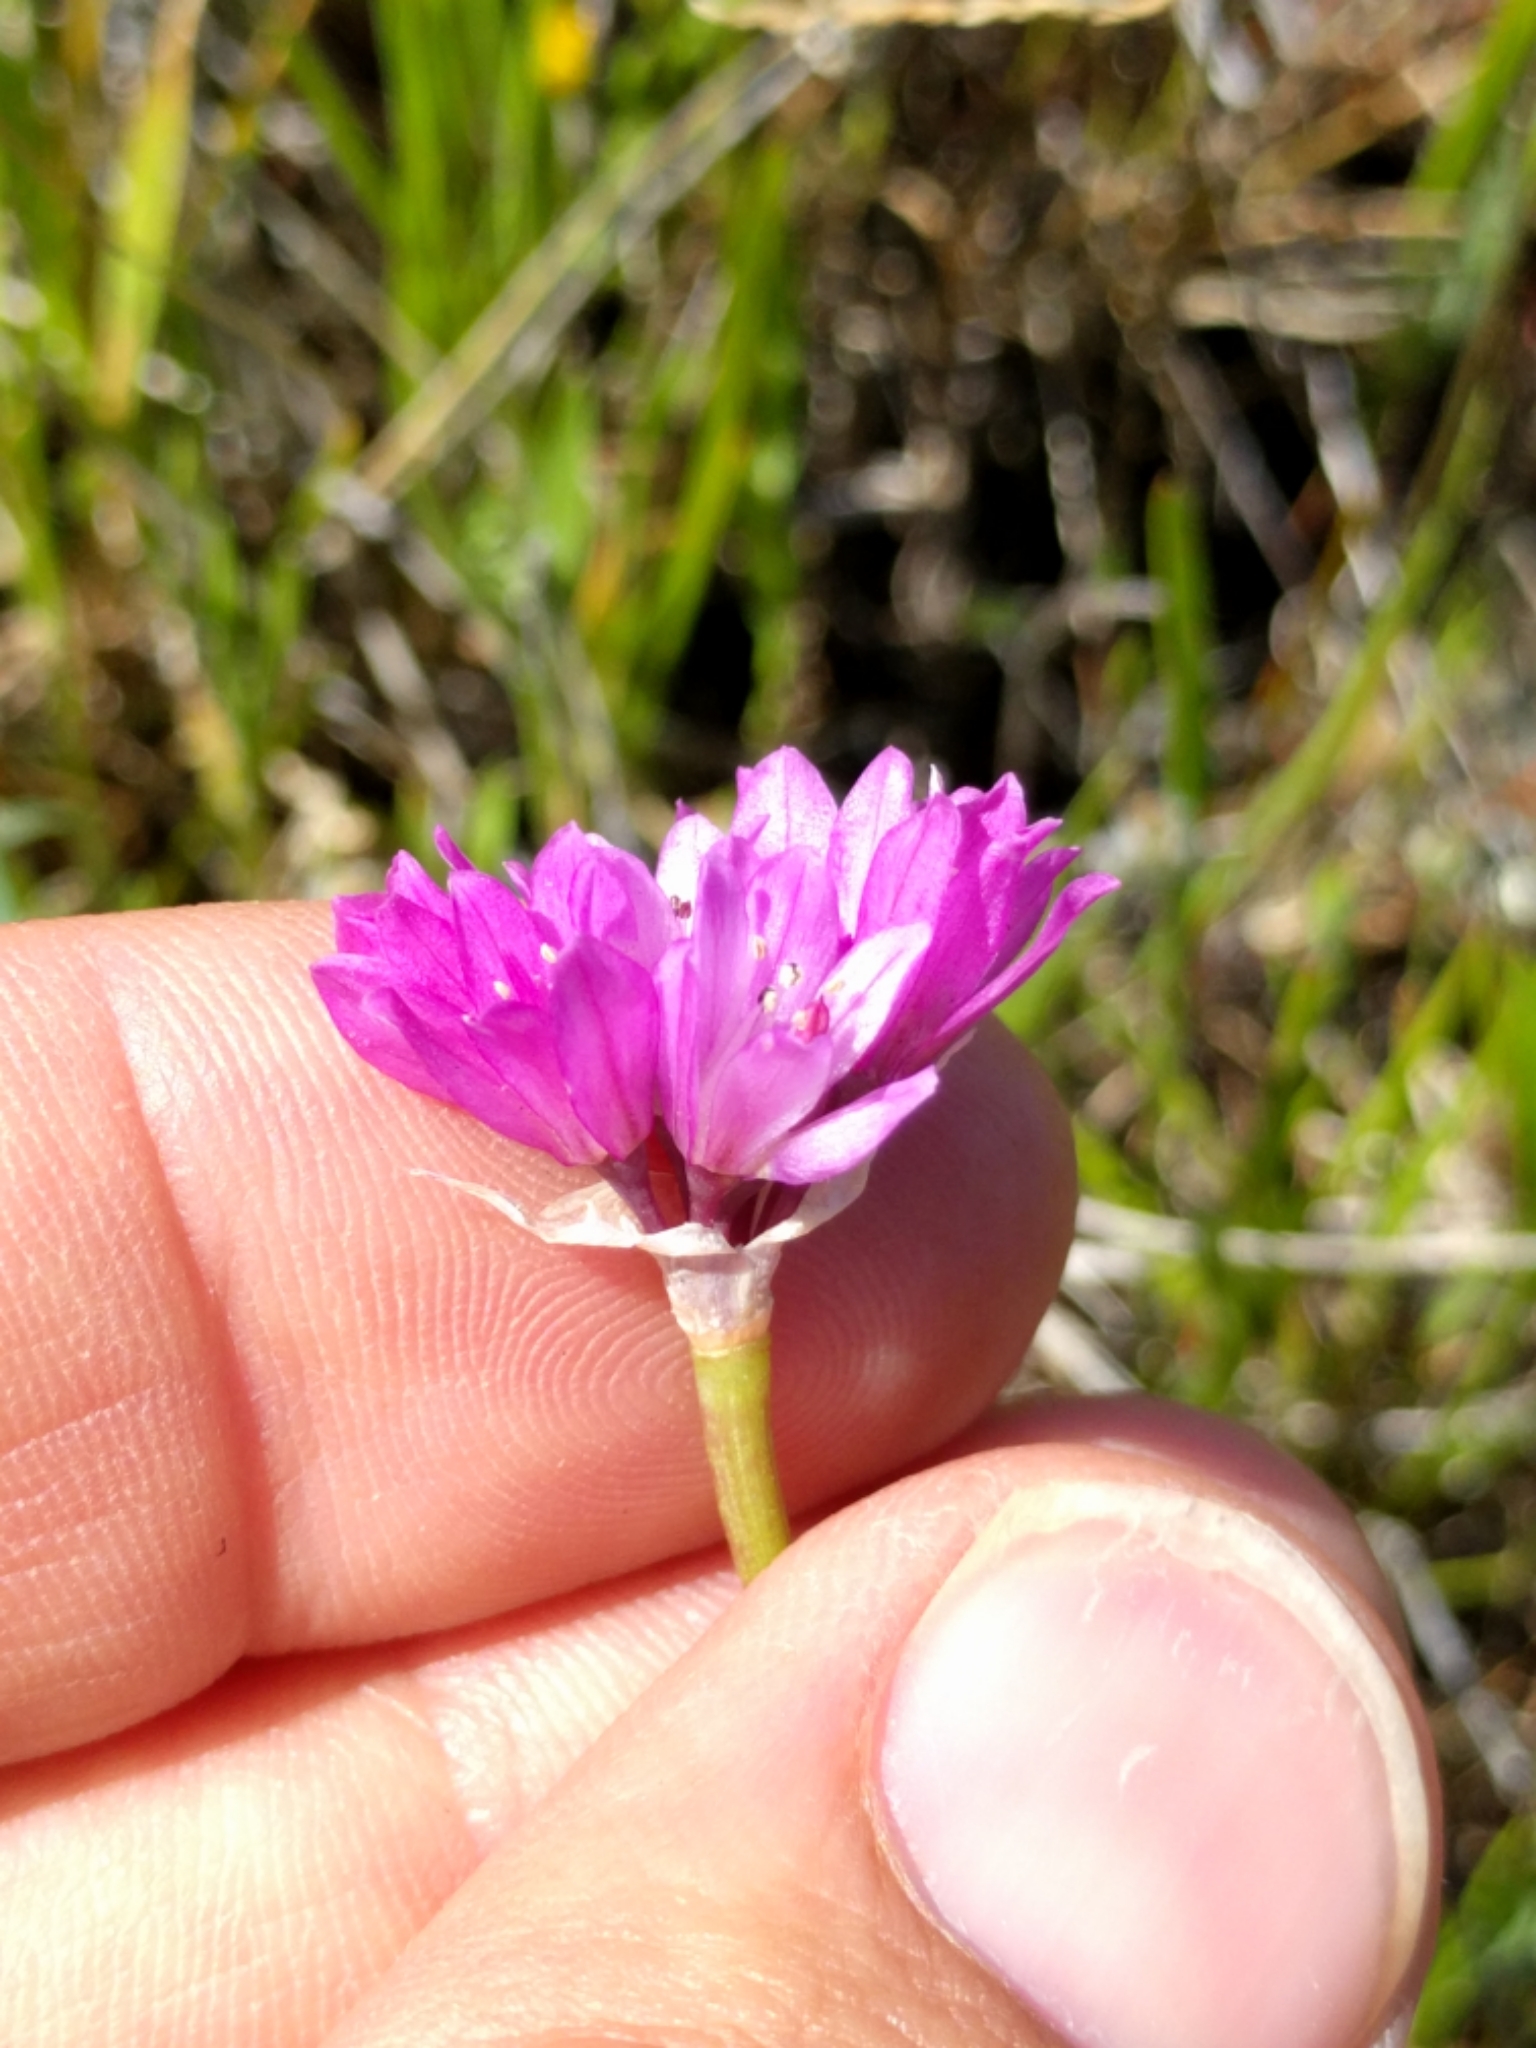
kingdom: Plantae
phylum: Tracheophyta
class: Liliopsida
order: Asparagales
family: Amaryllidaceae
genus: Allium
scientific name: Allium serra
